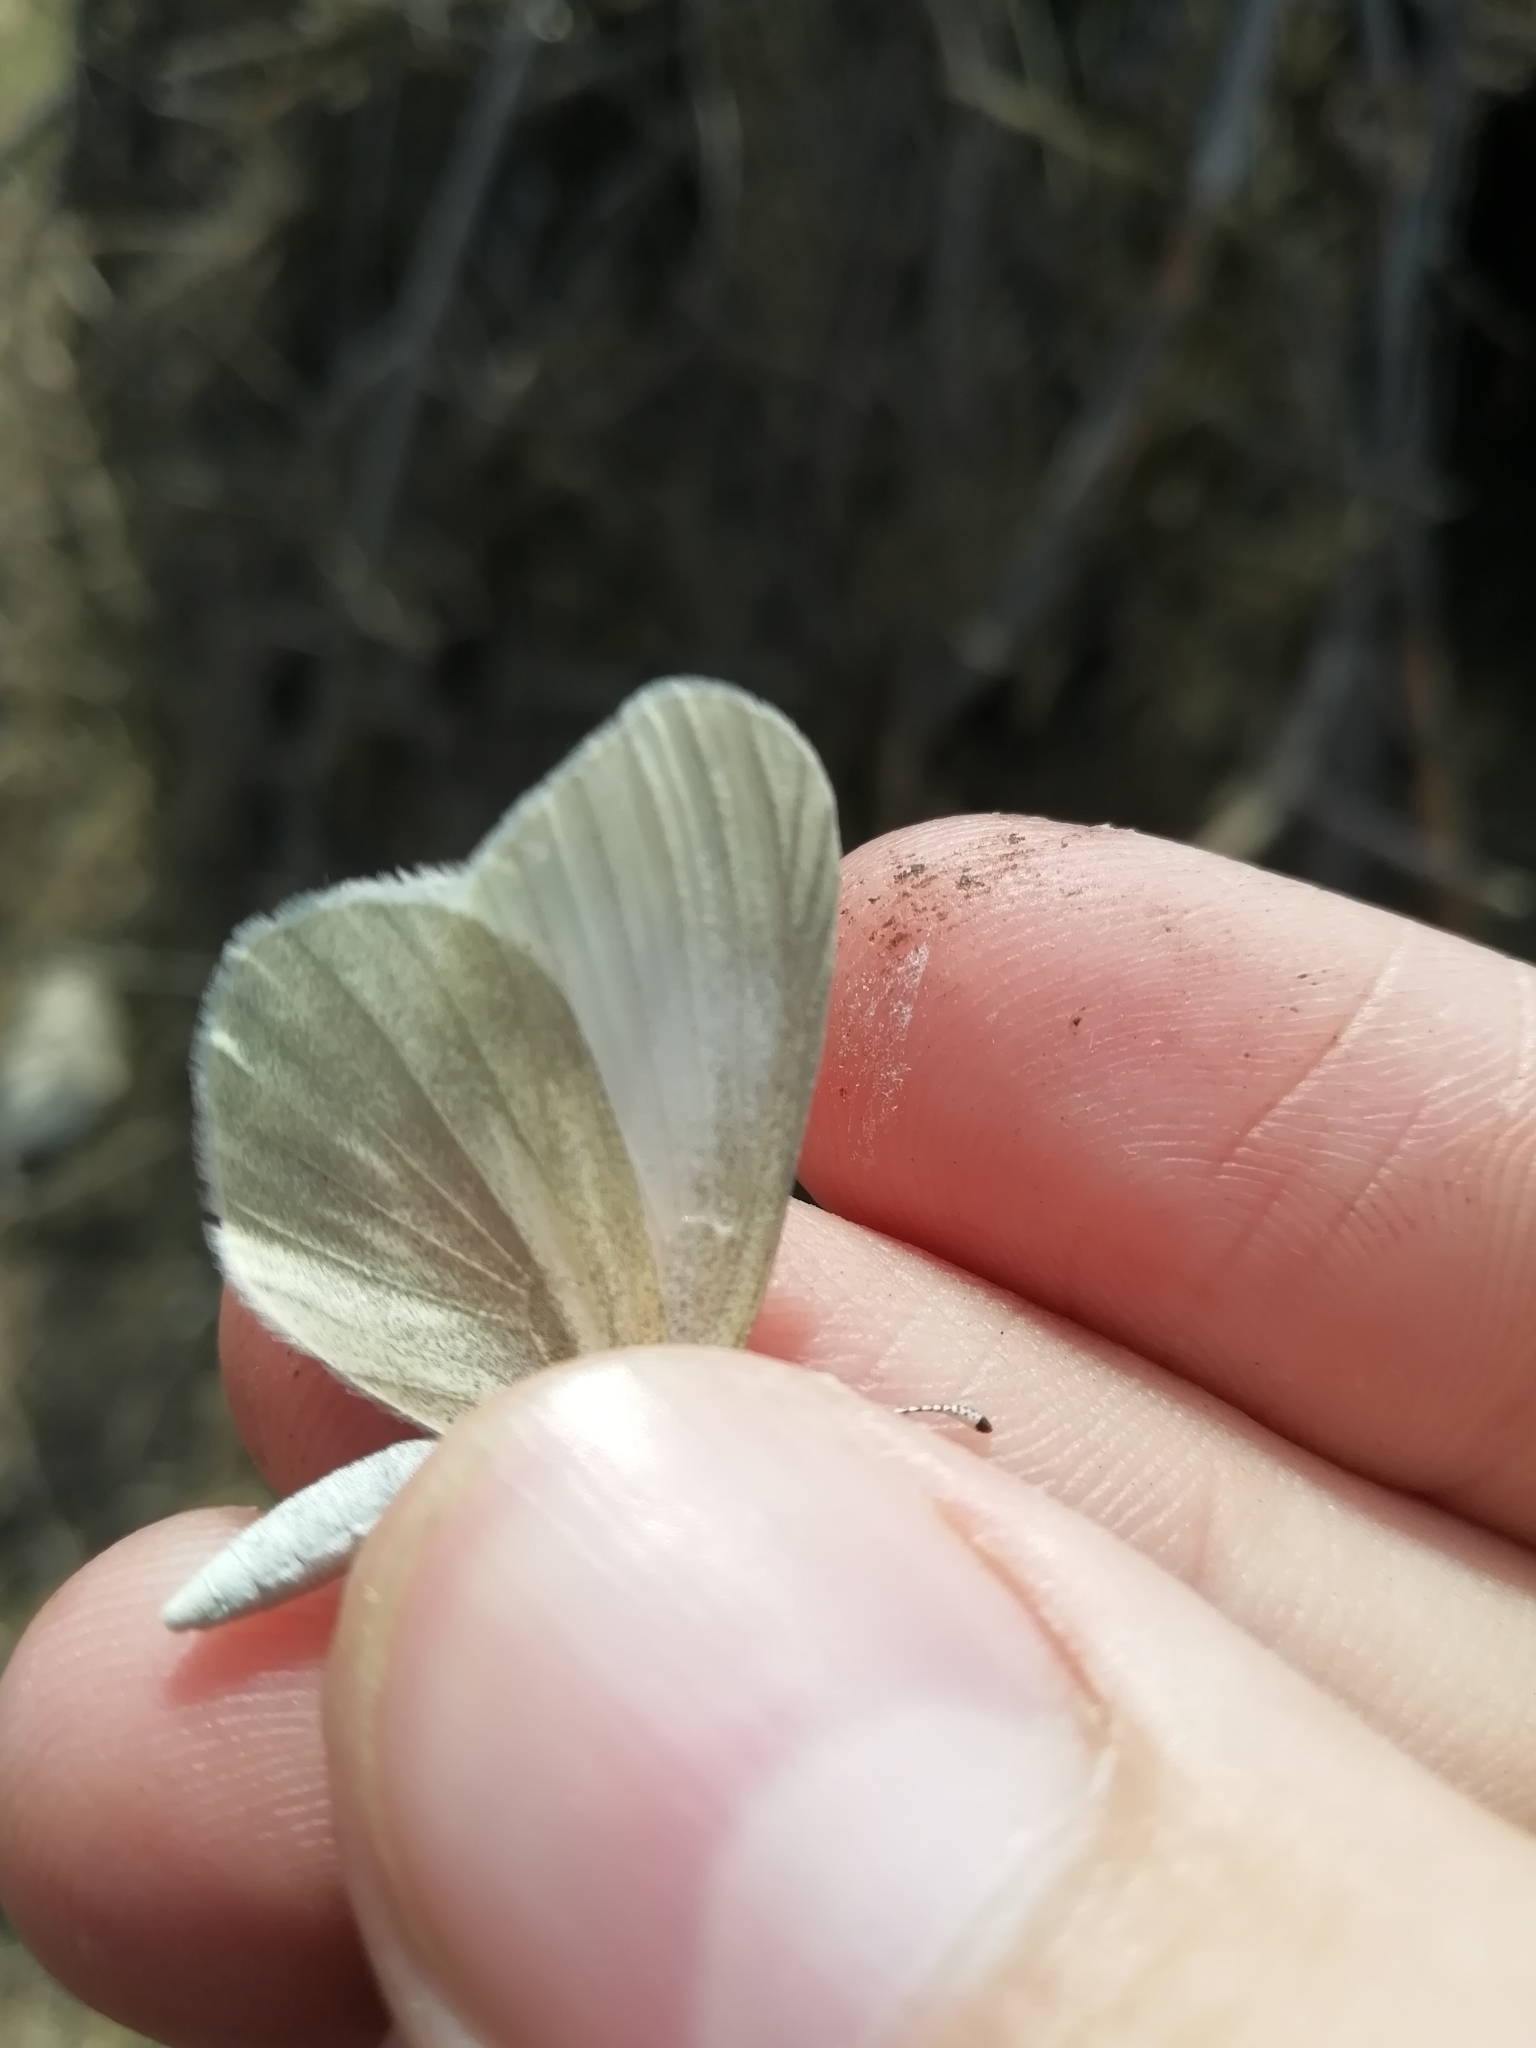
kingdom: Animalia
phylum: Arthropoda
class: Insecta
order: Lepidoptera
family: Pieridae
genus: Leptidea
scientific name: Leptidea morsei
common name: Fenton's wood white
